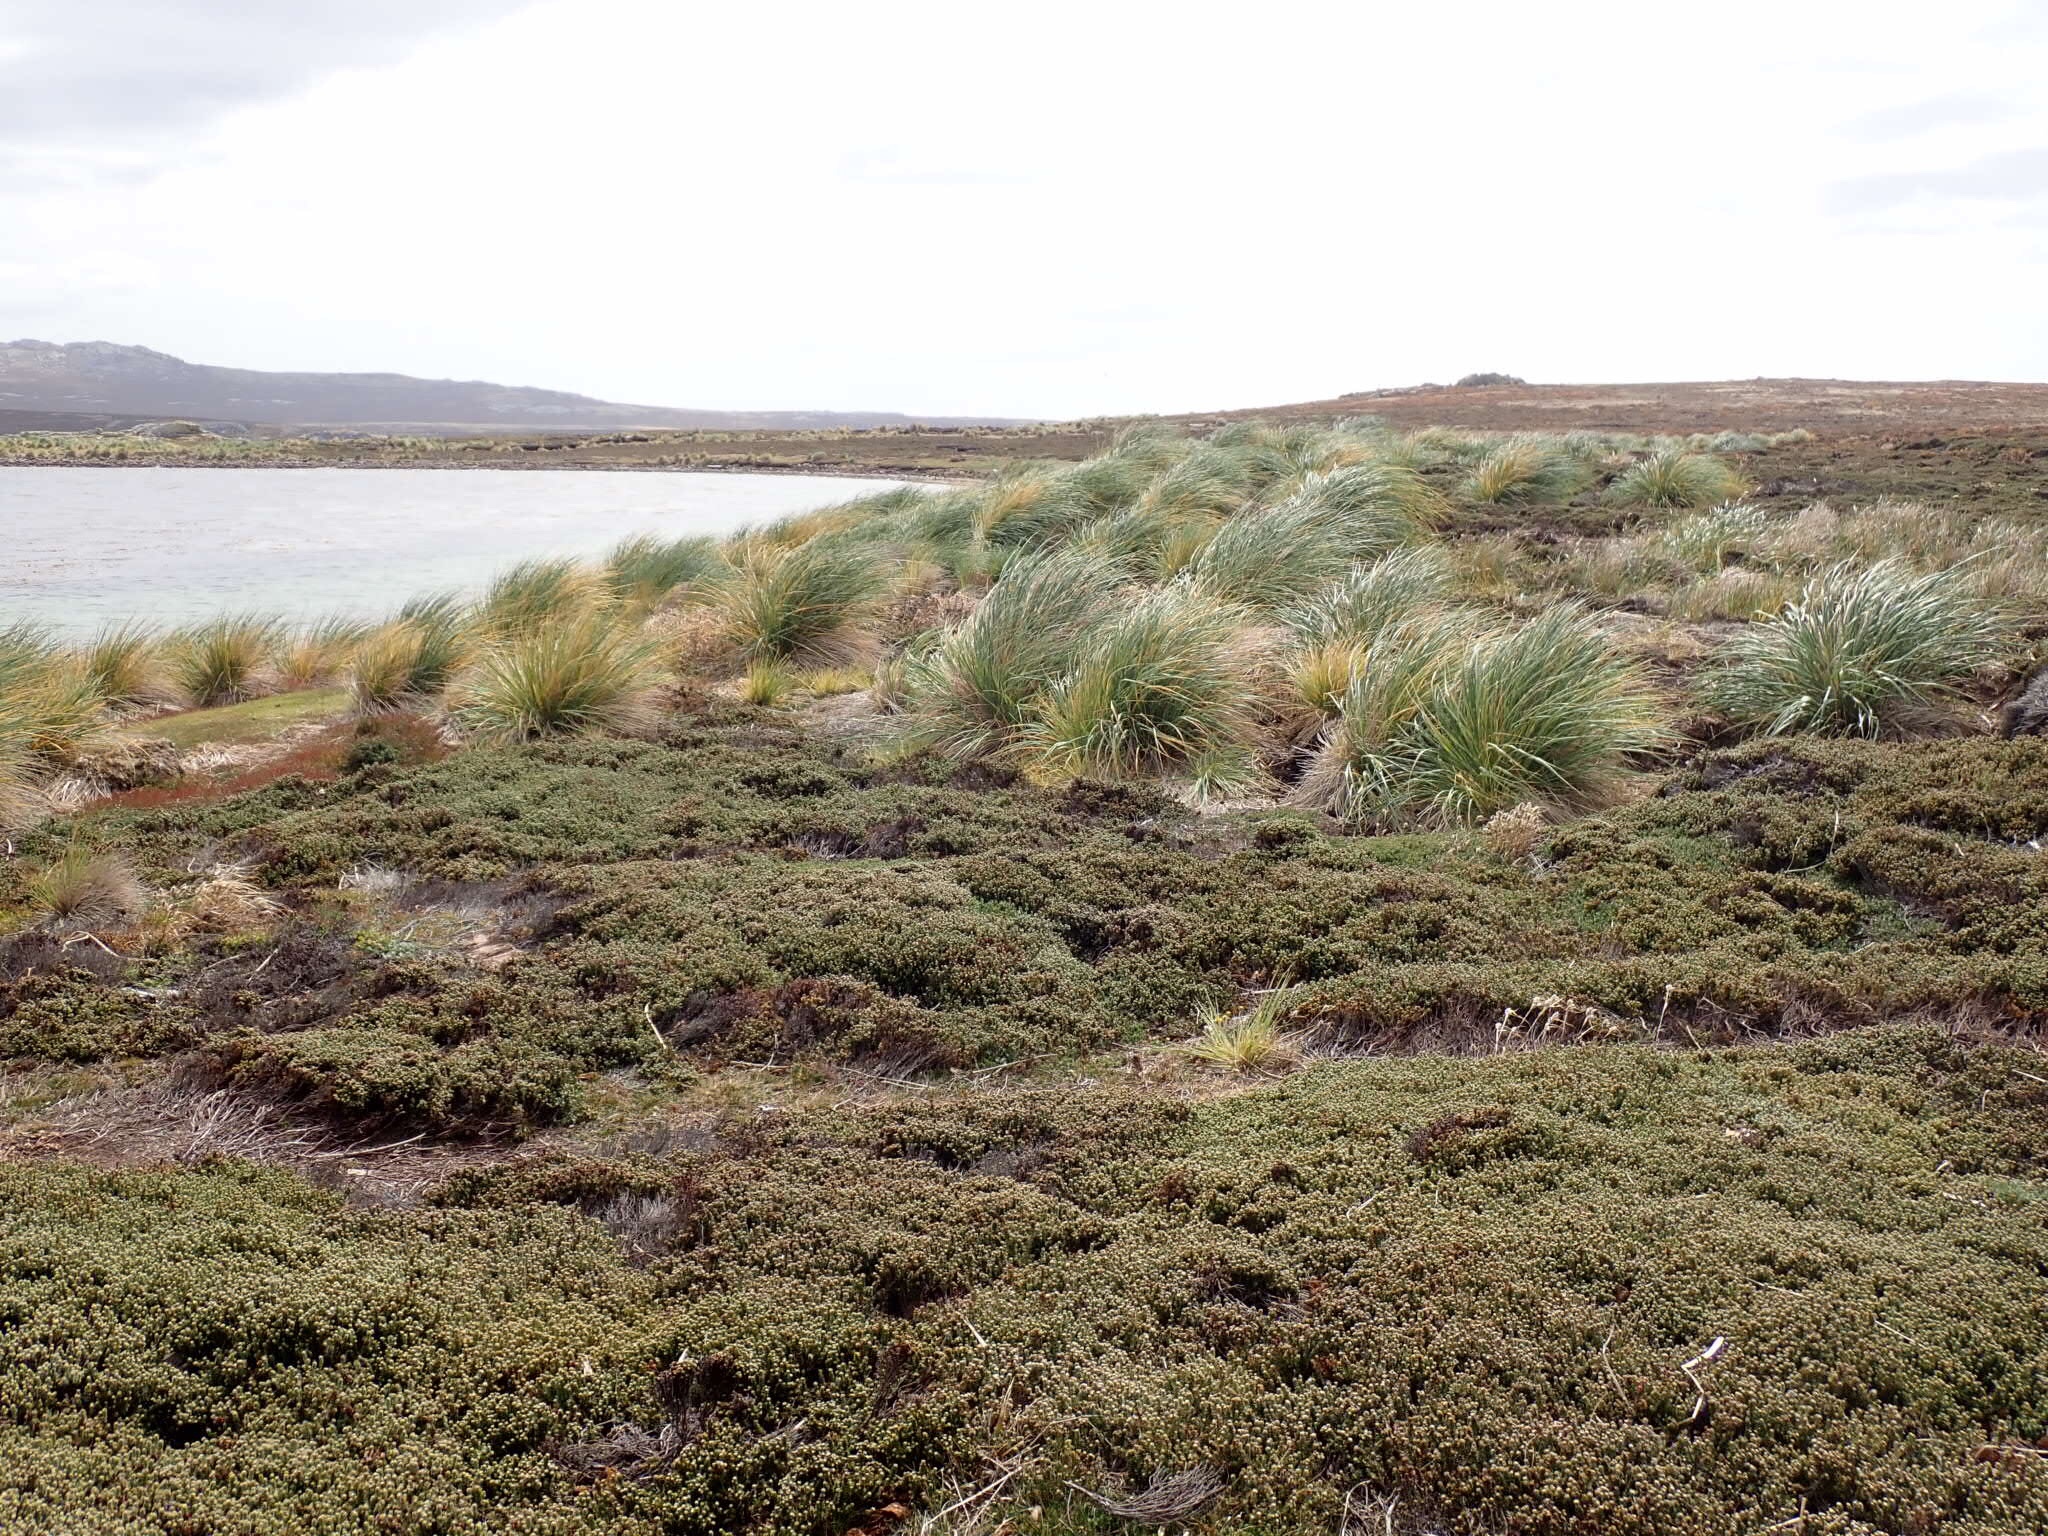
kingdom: Plantae
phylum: Tracheophyta
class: Liliopsida
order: Poales
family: Poaceae
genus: Poa
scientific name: Poa flabellata
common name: Tussac-grass
